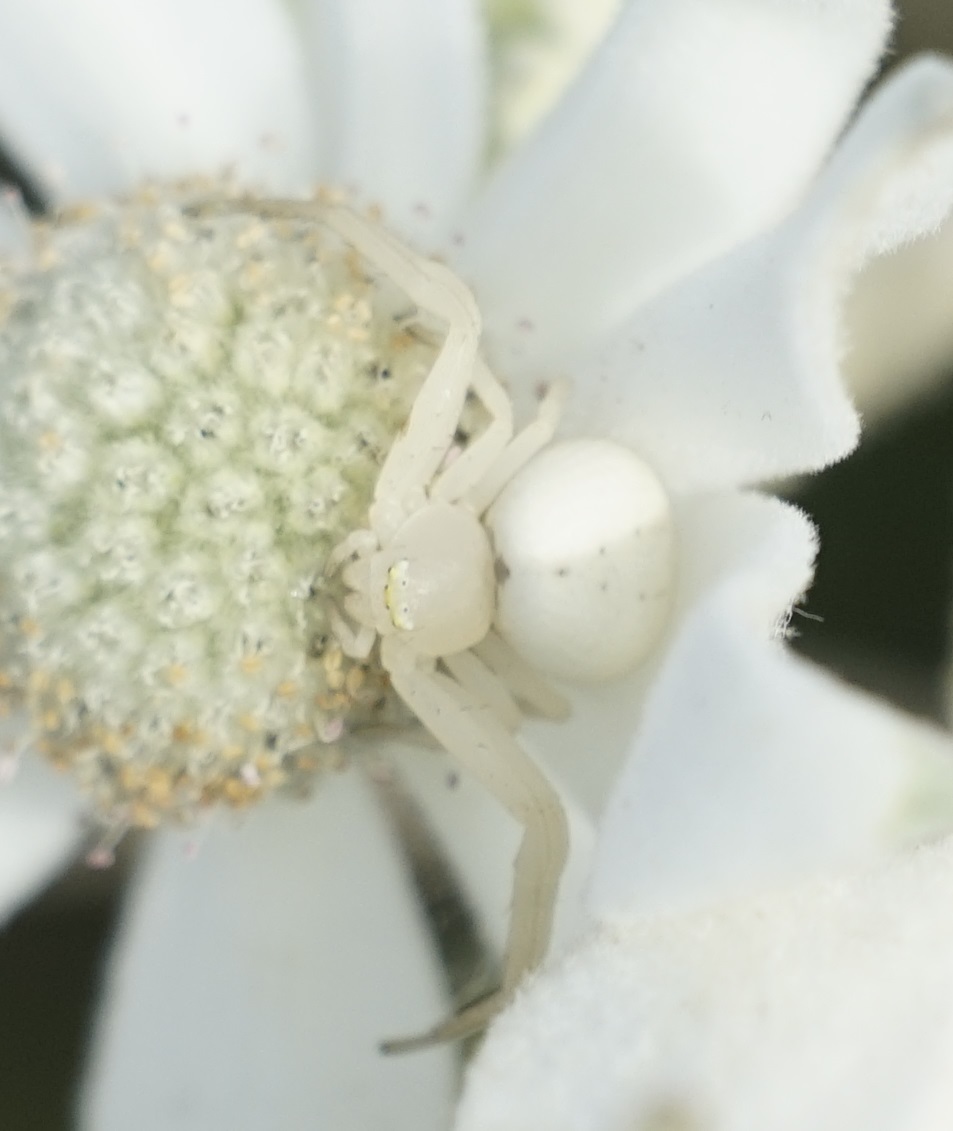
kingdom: Animalia
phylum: Arthropoda
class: Arachnida
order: Araneae
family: Thomisidae
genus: Zygometis
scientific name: Zygometis xanthogaster
